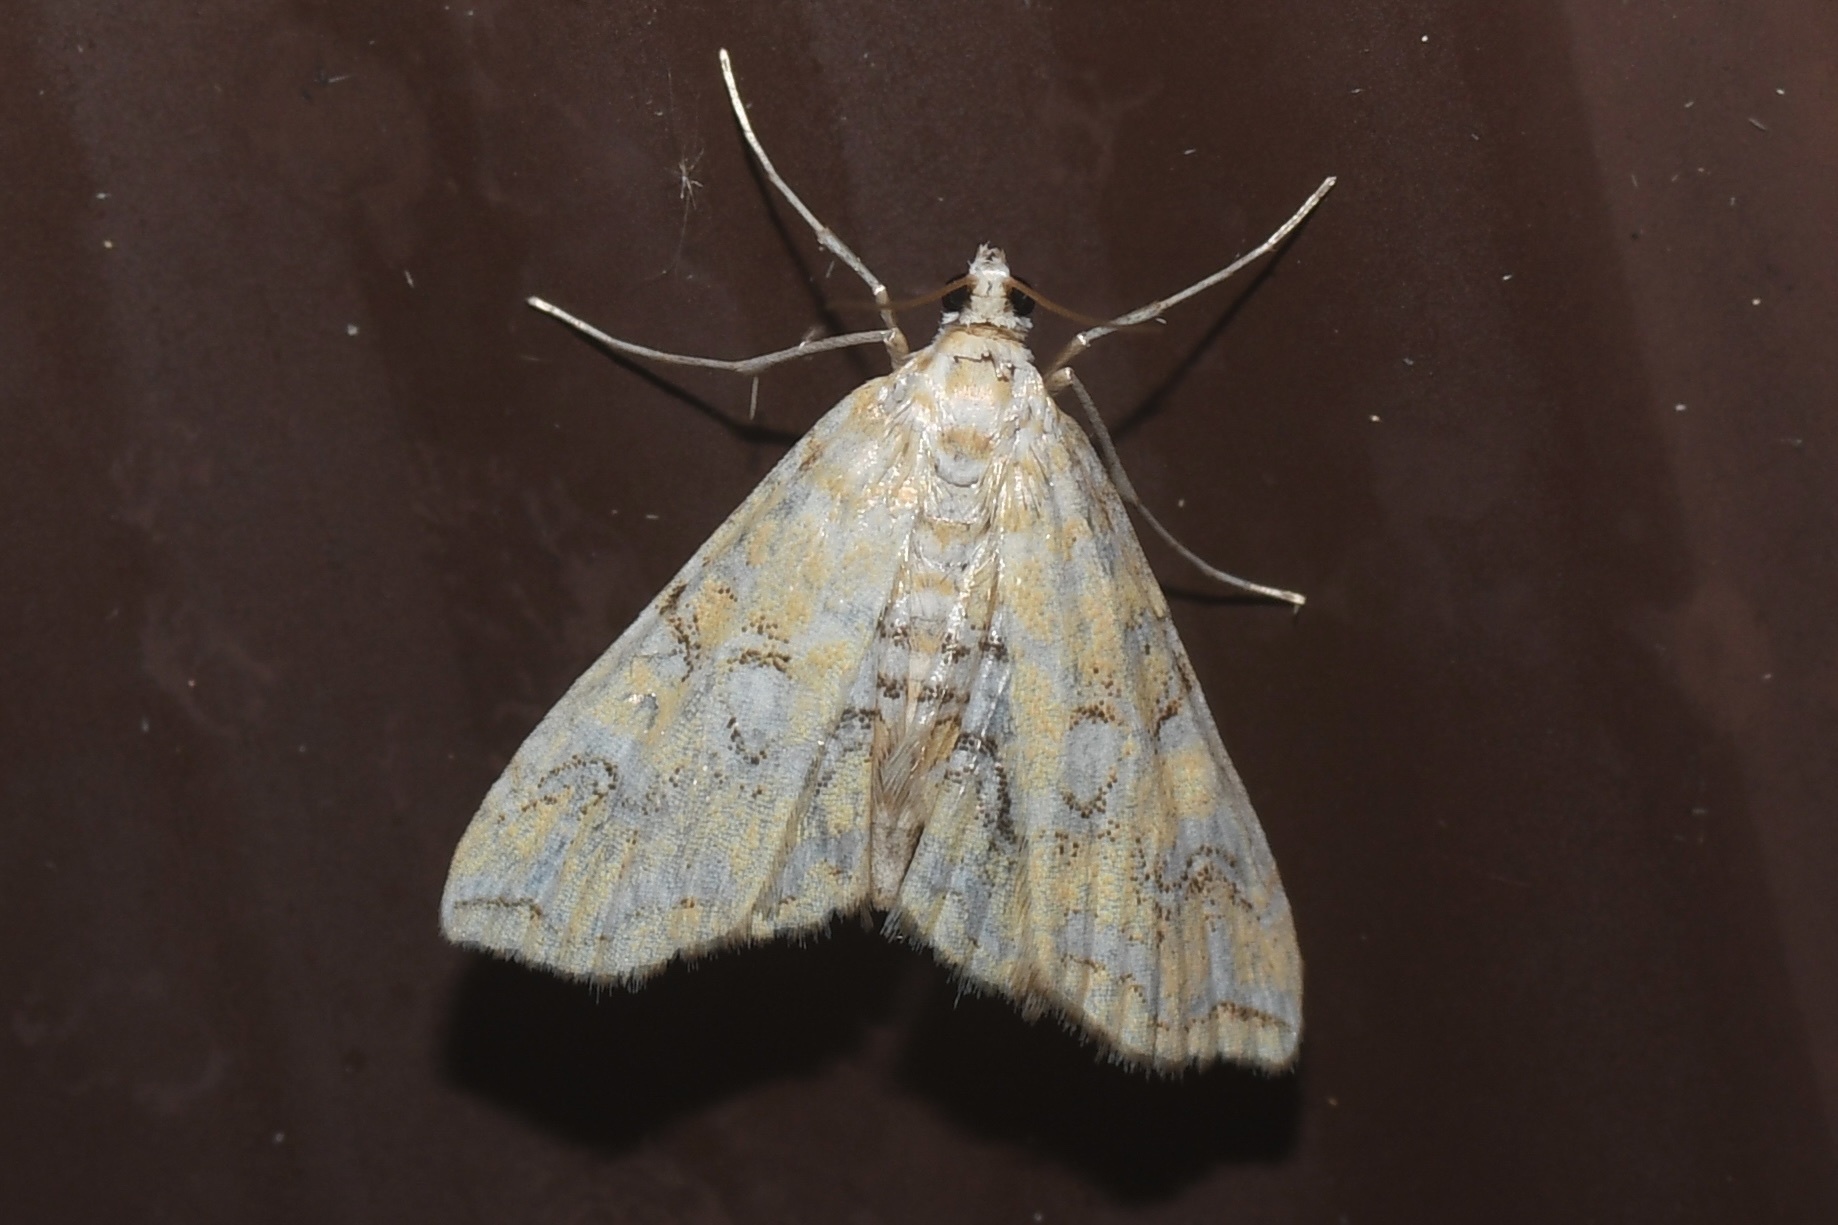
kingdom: Animalia
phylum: Arthropoda
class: Insecta
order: Lepidoptera
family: Crambidae
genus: Elophila
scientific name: Elophila icciusalis
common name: Pondside pyralid moth
